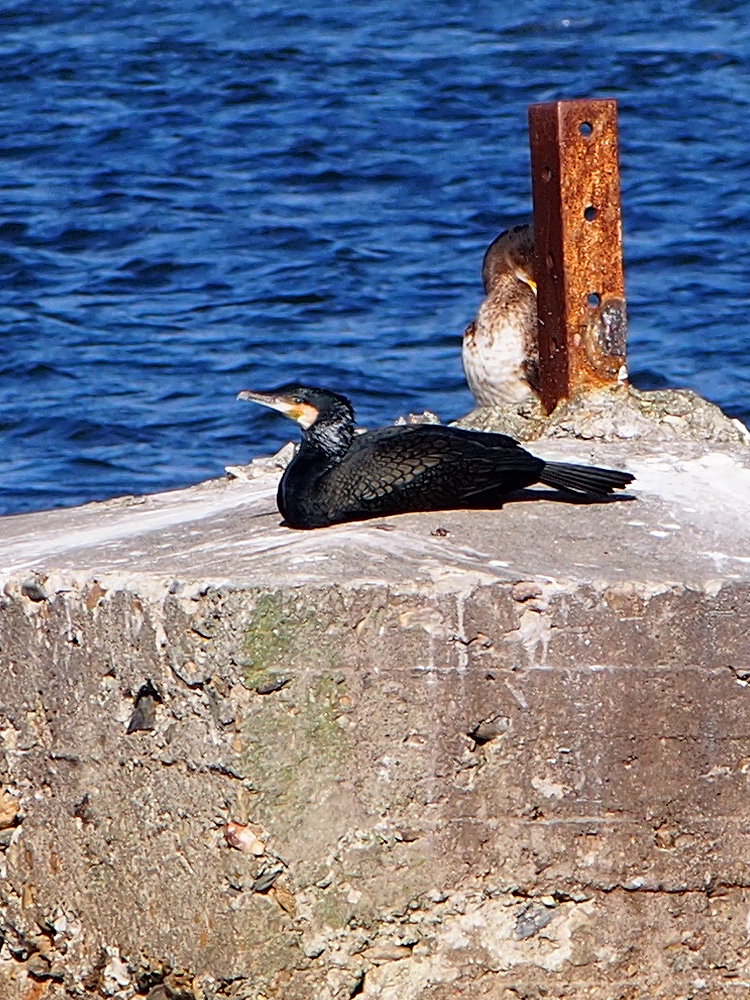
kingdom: Animalia
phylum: Chordata
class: Aves
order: Suliformes
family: Phalacrocoracidae
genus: Phalacrocorax
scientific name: Phalacrocorax carbo
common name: Great cormorant
